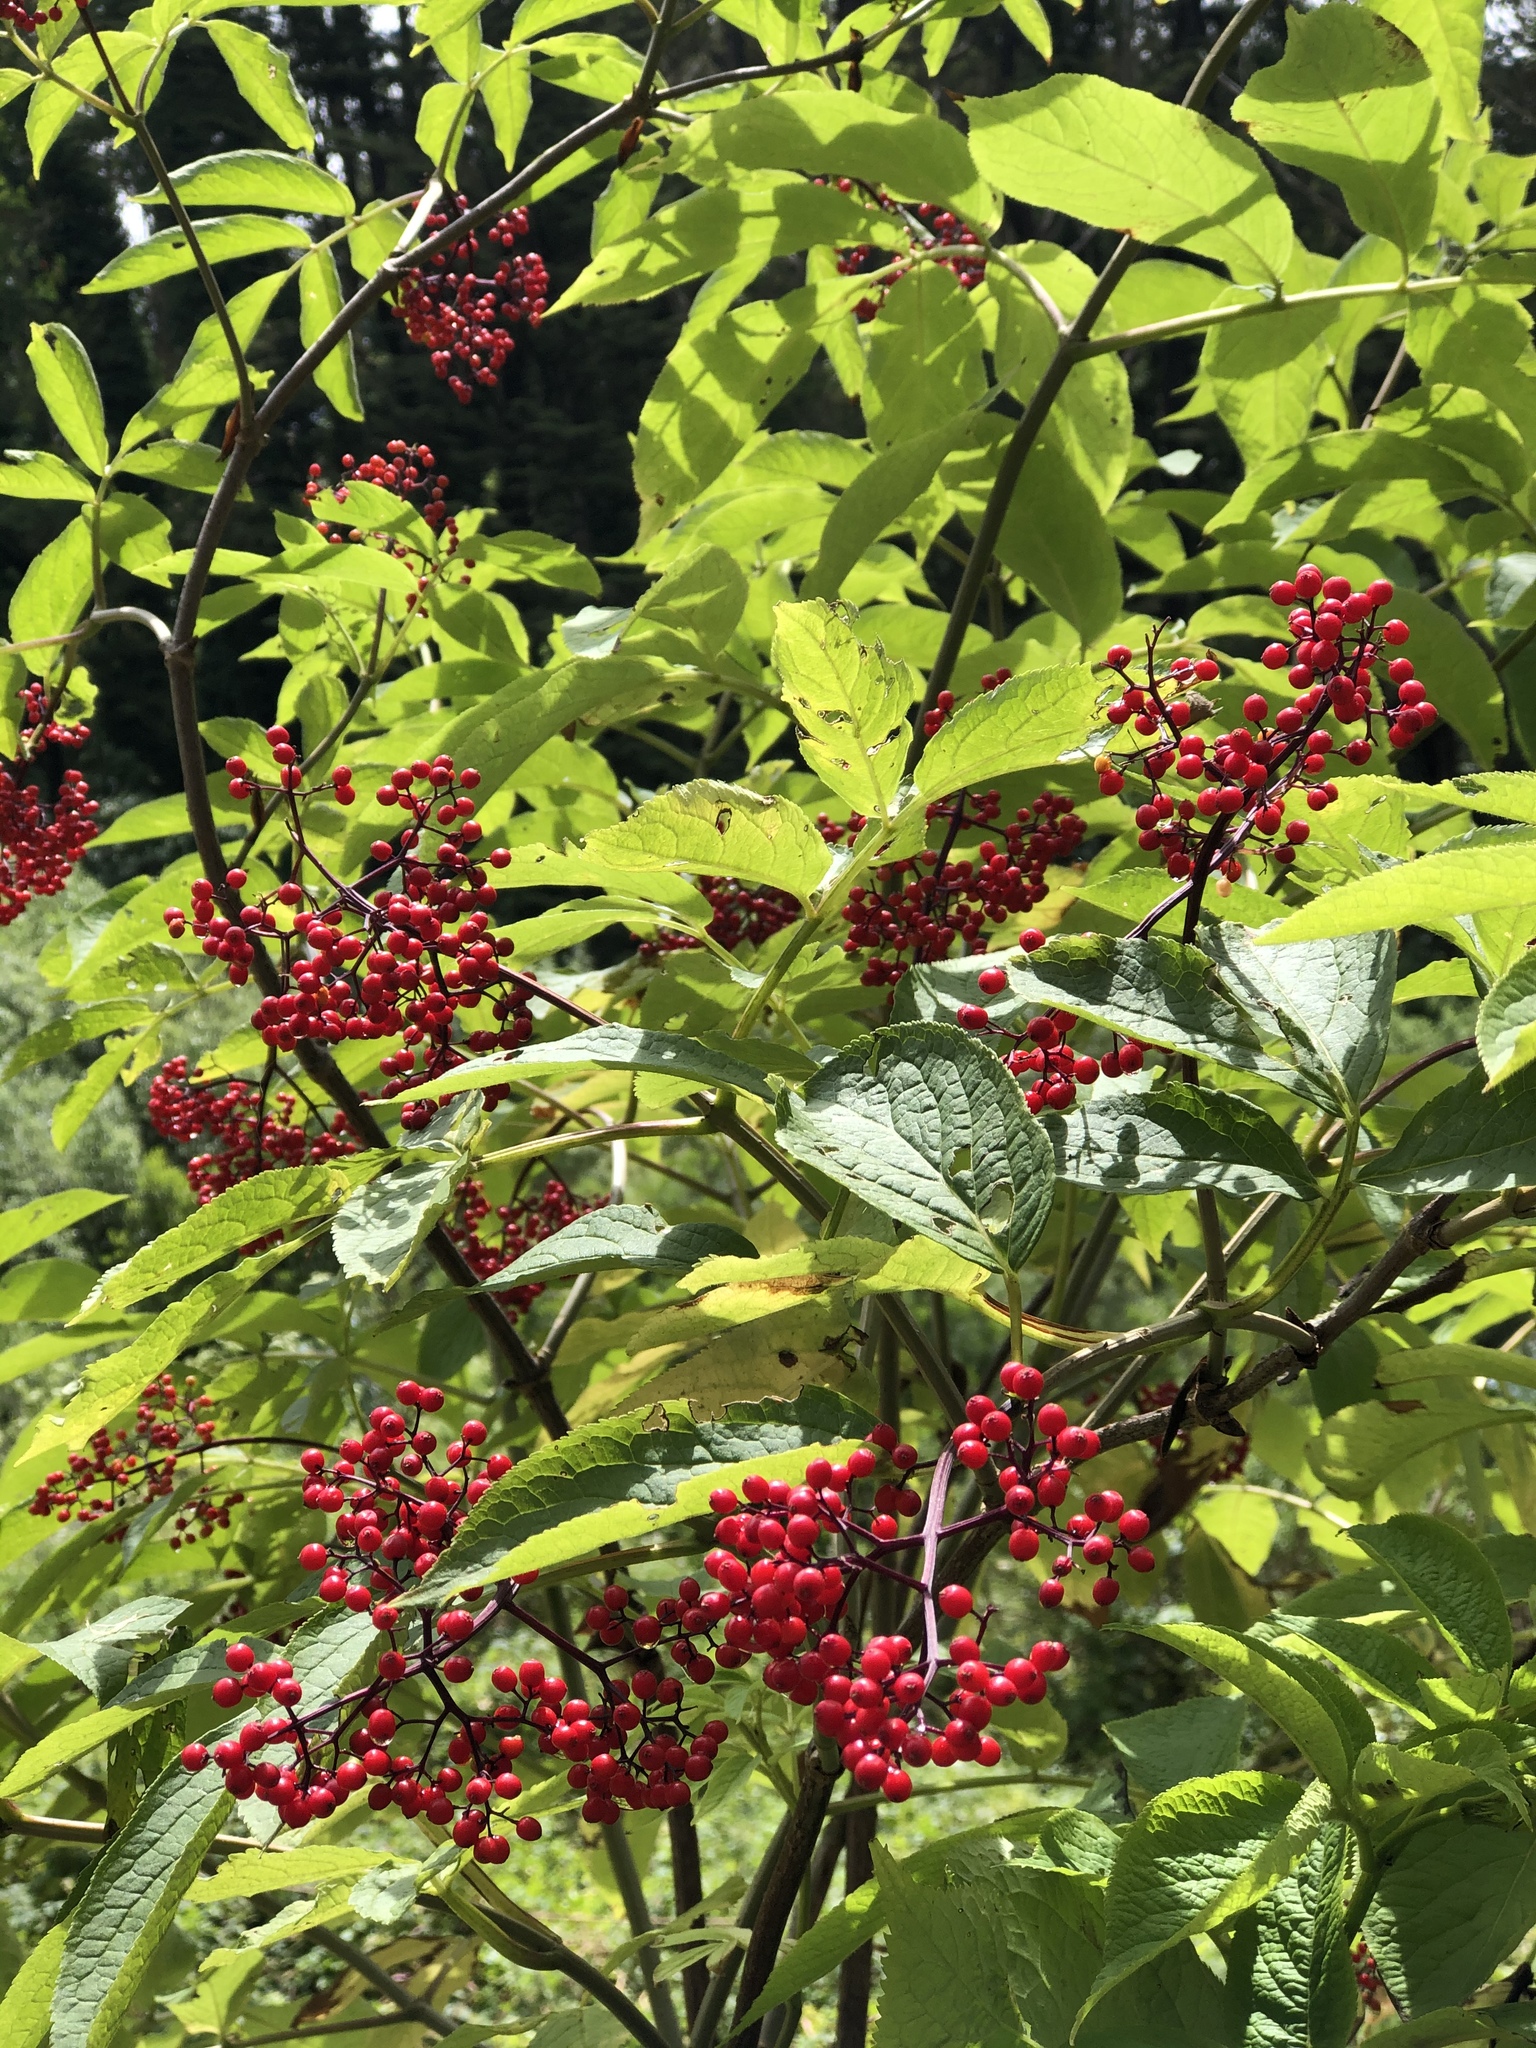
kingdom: Plantae
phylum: Tracheophyta
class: Magnoliopsida
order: Dipsacales
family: Viburnaceae
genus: Sambucus
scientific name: Sambucus racemosa
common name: Red-berried elder
